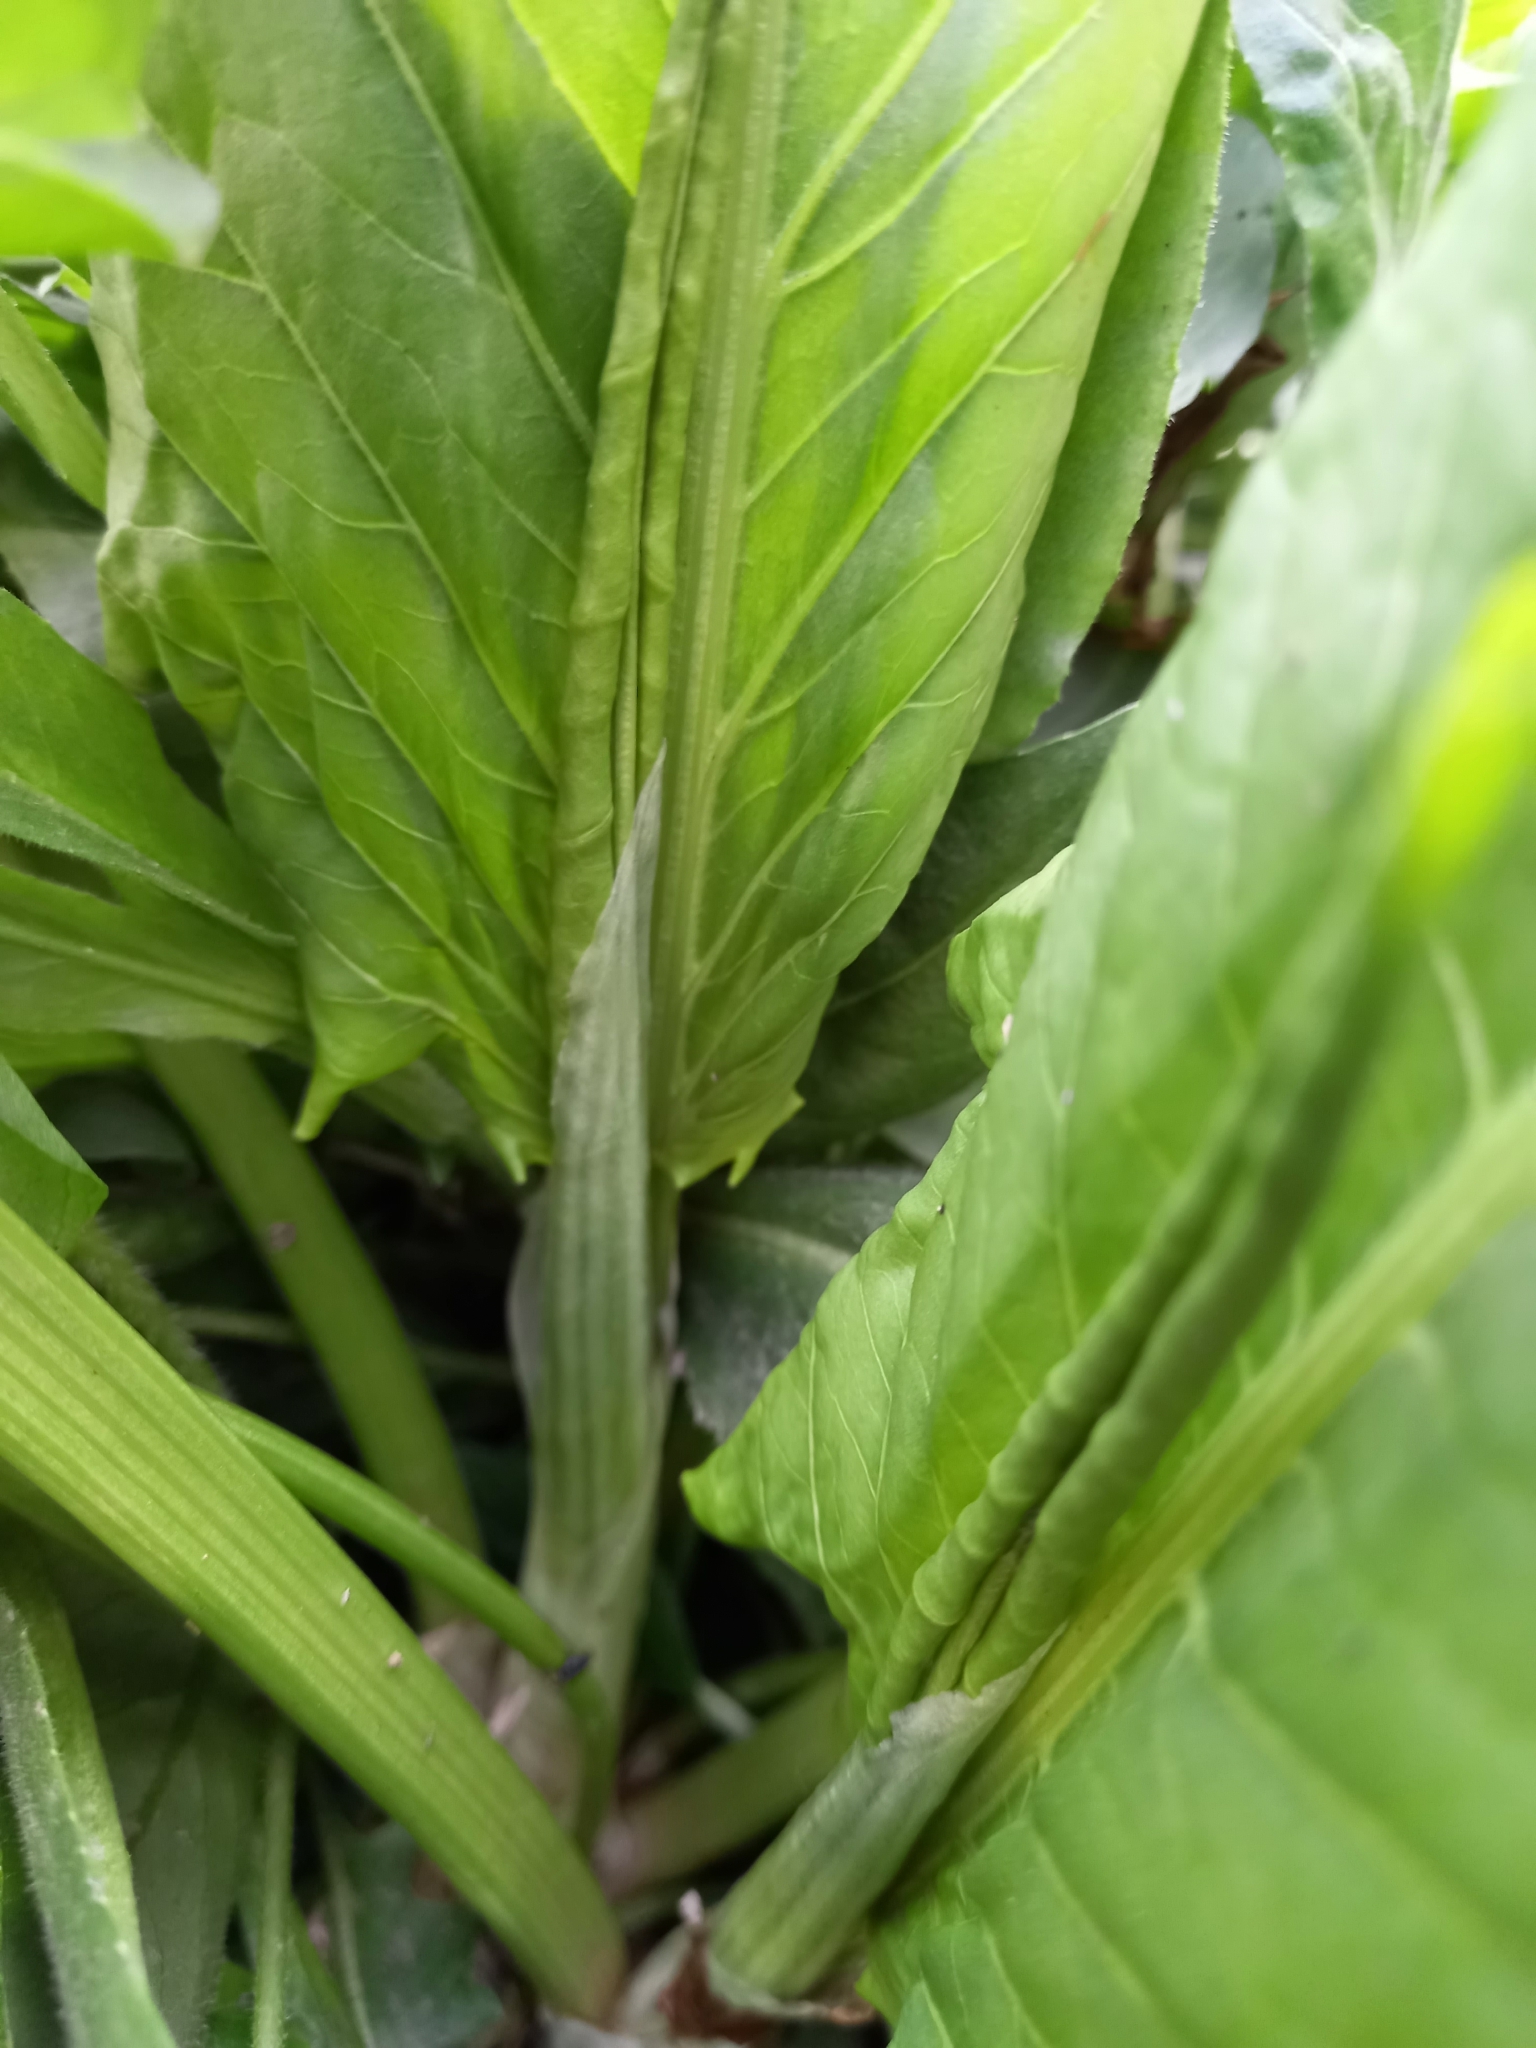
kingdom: Plantae
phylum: Tracheophyta
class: Magnoliopsida
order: Caryophyllales
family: Polygonaceae
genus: Rumex
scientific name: Rumex confertus
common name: Russian dock
